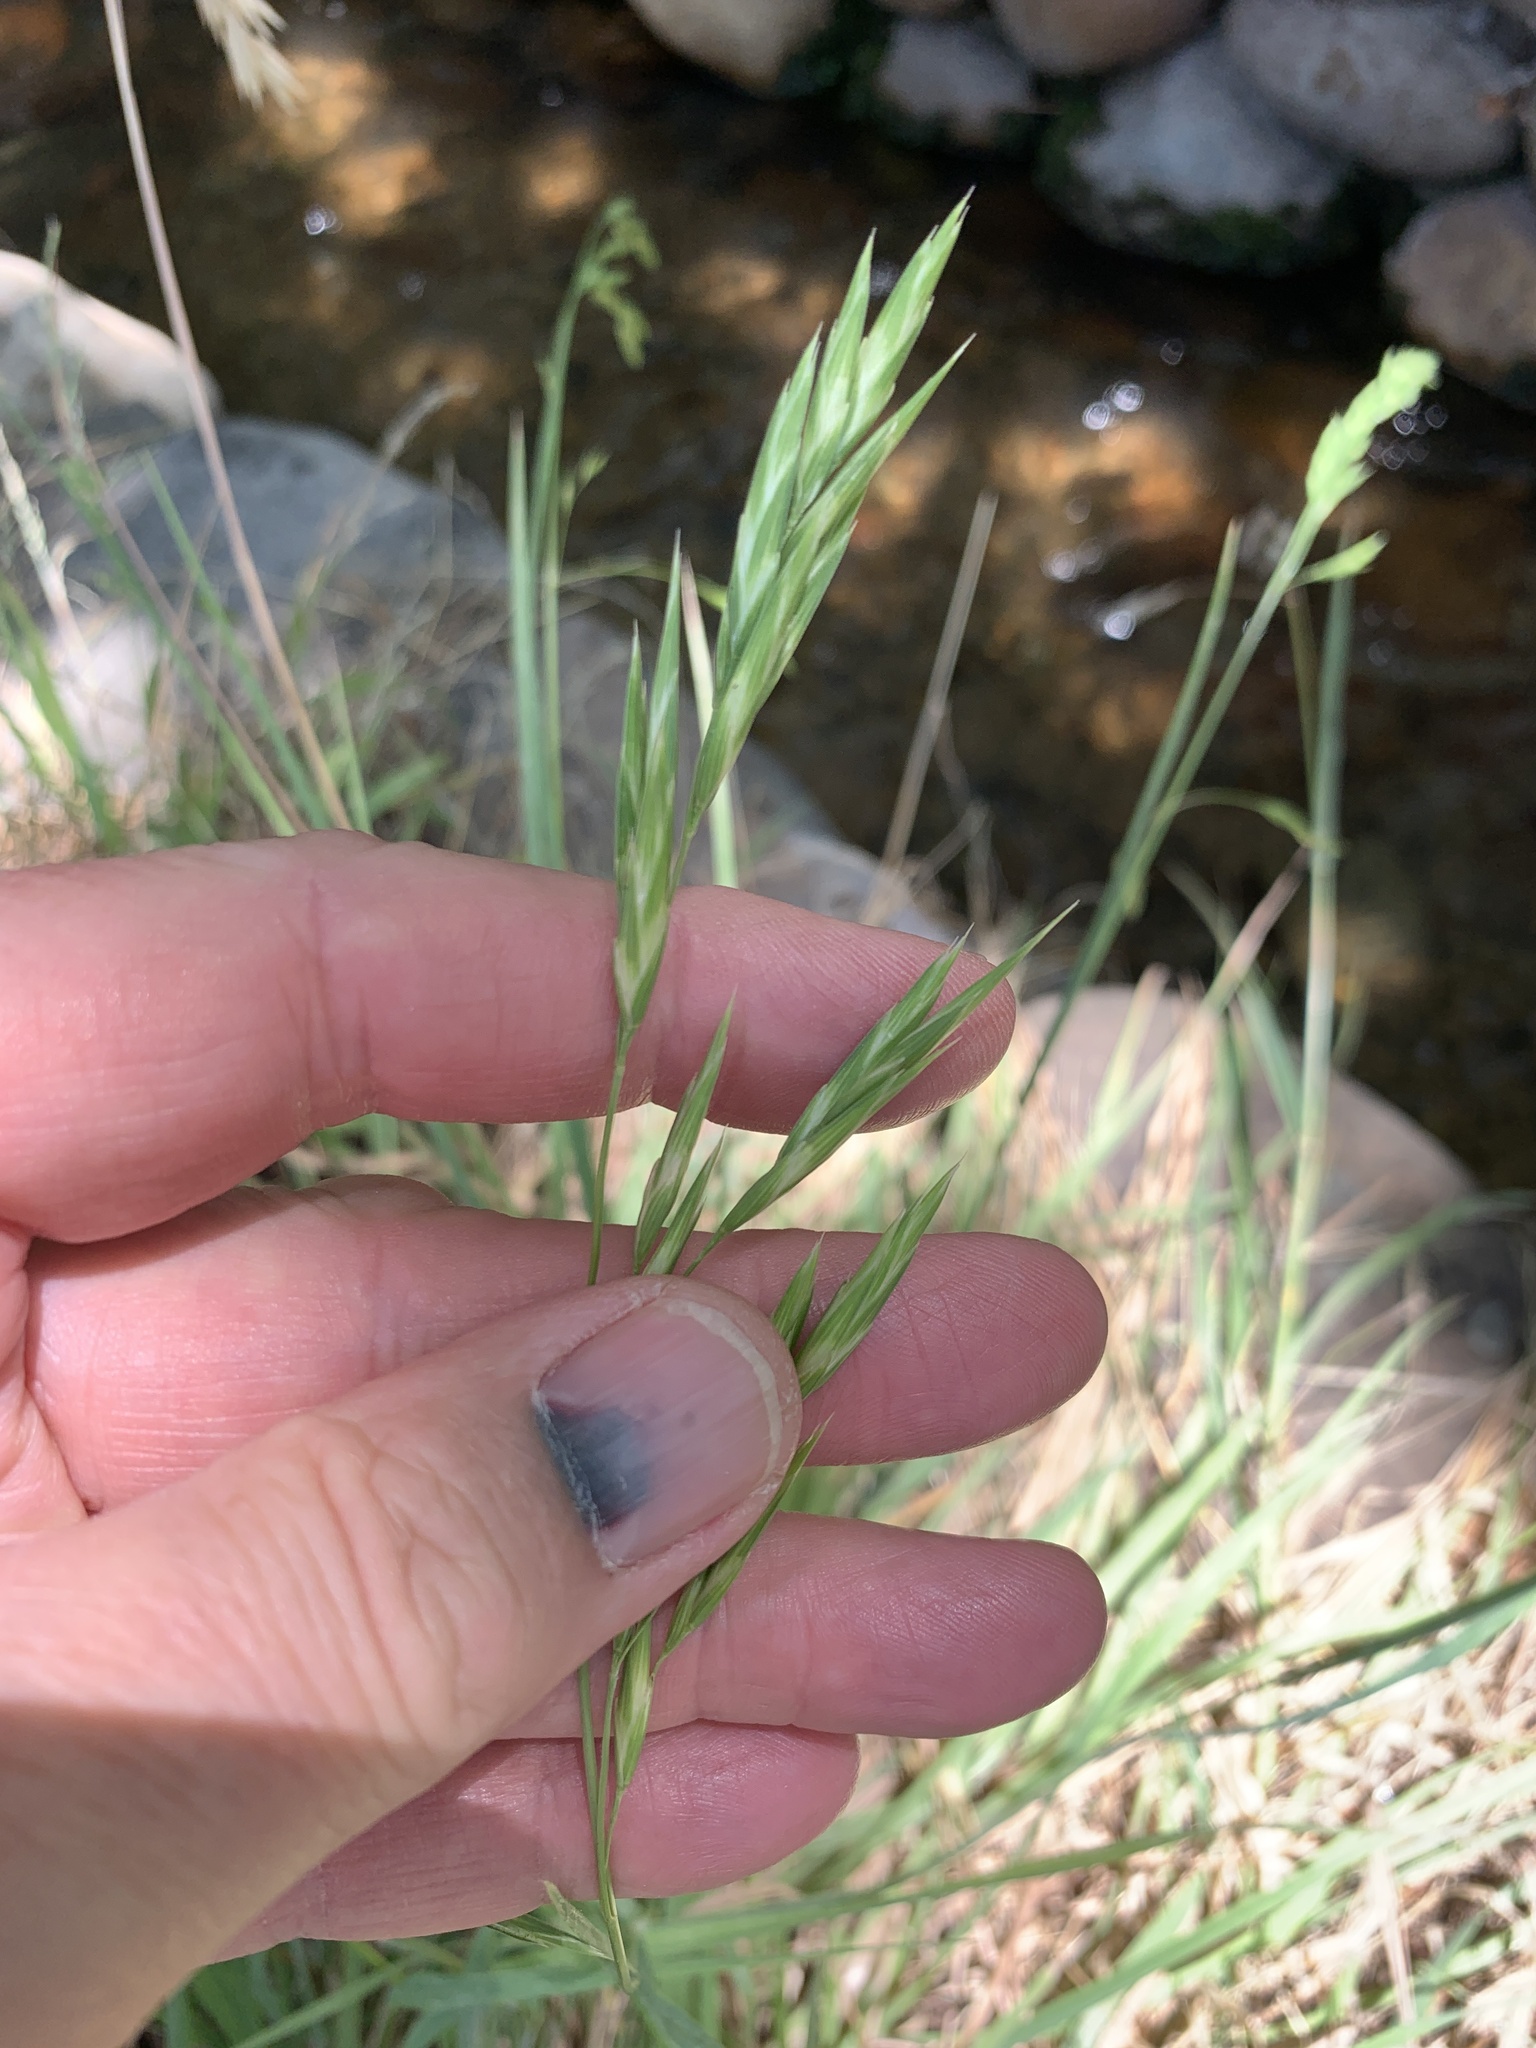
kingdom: Plantae
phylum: Tracheophyta
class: Liliopsida
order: Poales
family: Poaceae
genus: Bromus
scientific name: Bromus catharticus
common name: Rescuegrass
